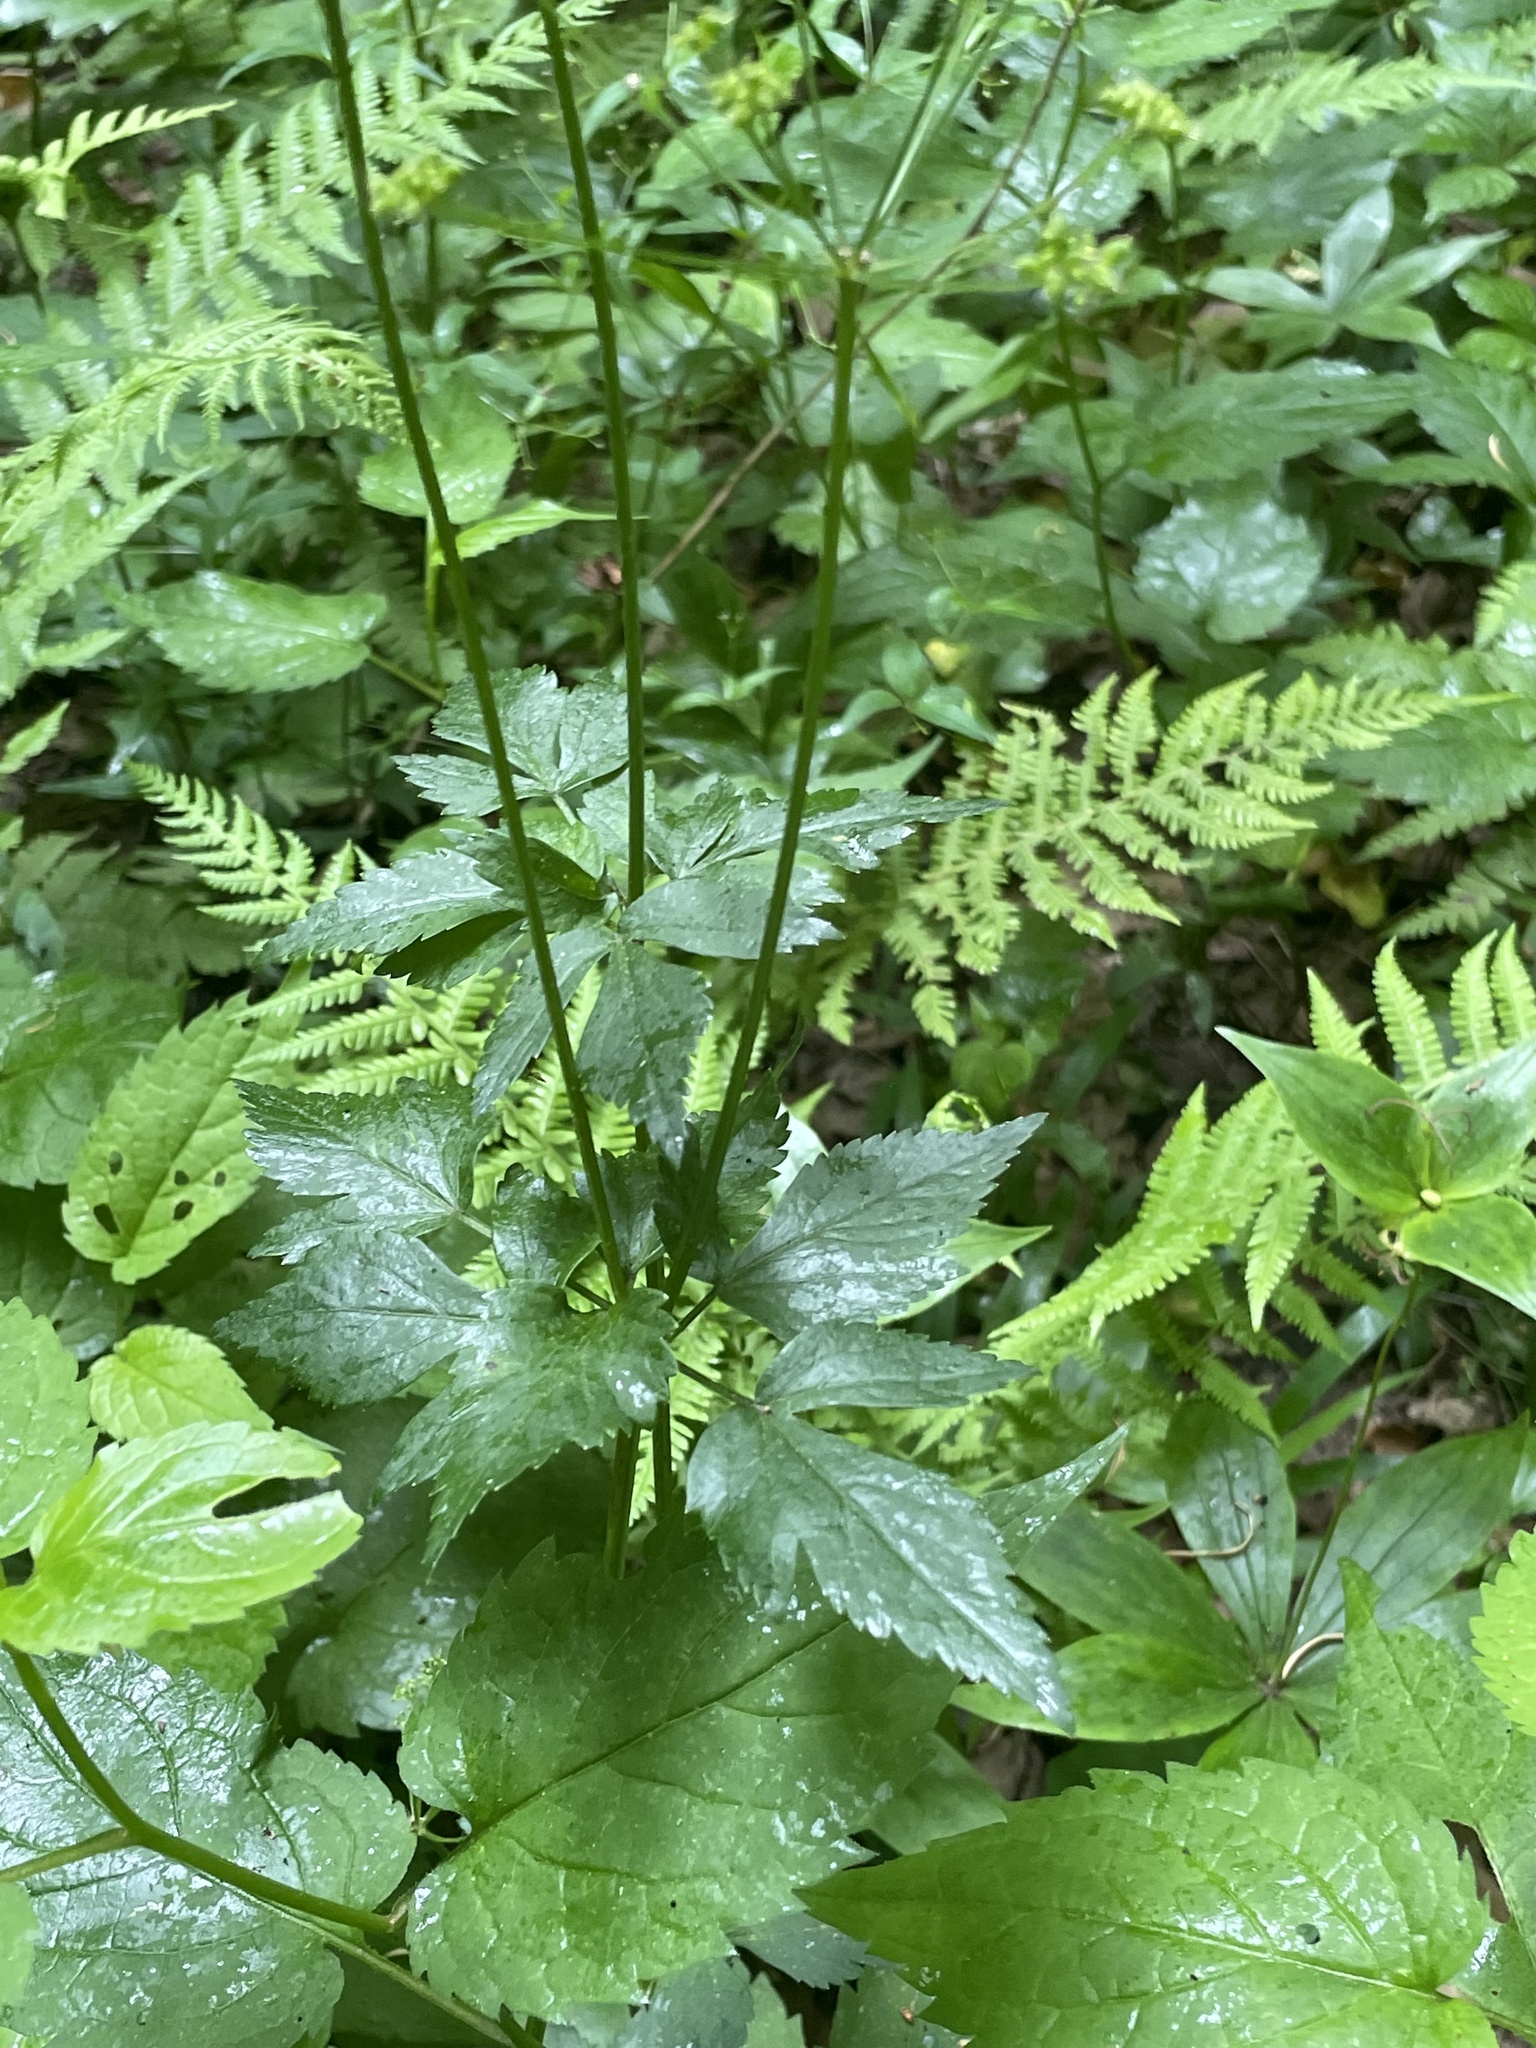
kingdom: Plantae
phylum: Tracheophyta
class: Magnoliopsida
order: Apiales
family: Apiaceae
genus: Thaspium
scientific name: Thaspium barbinode
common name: Bearded meadow-parsnip
